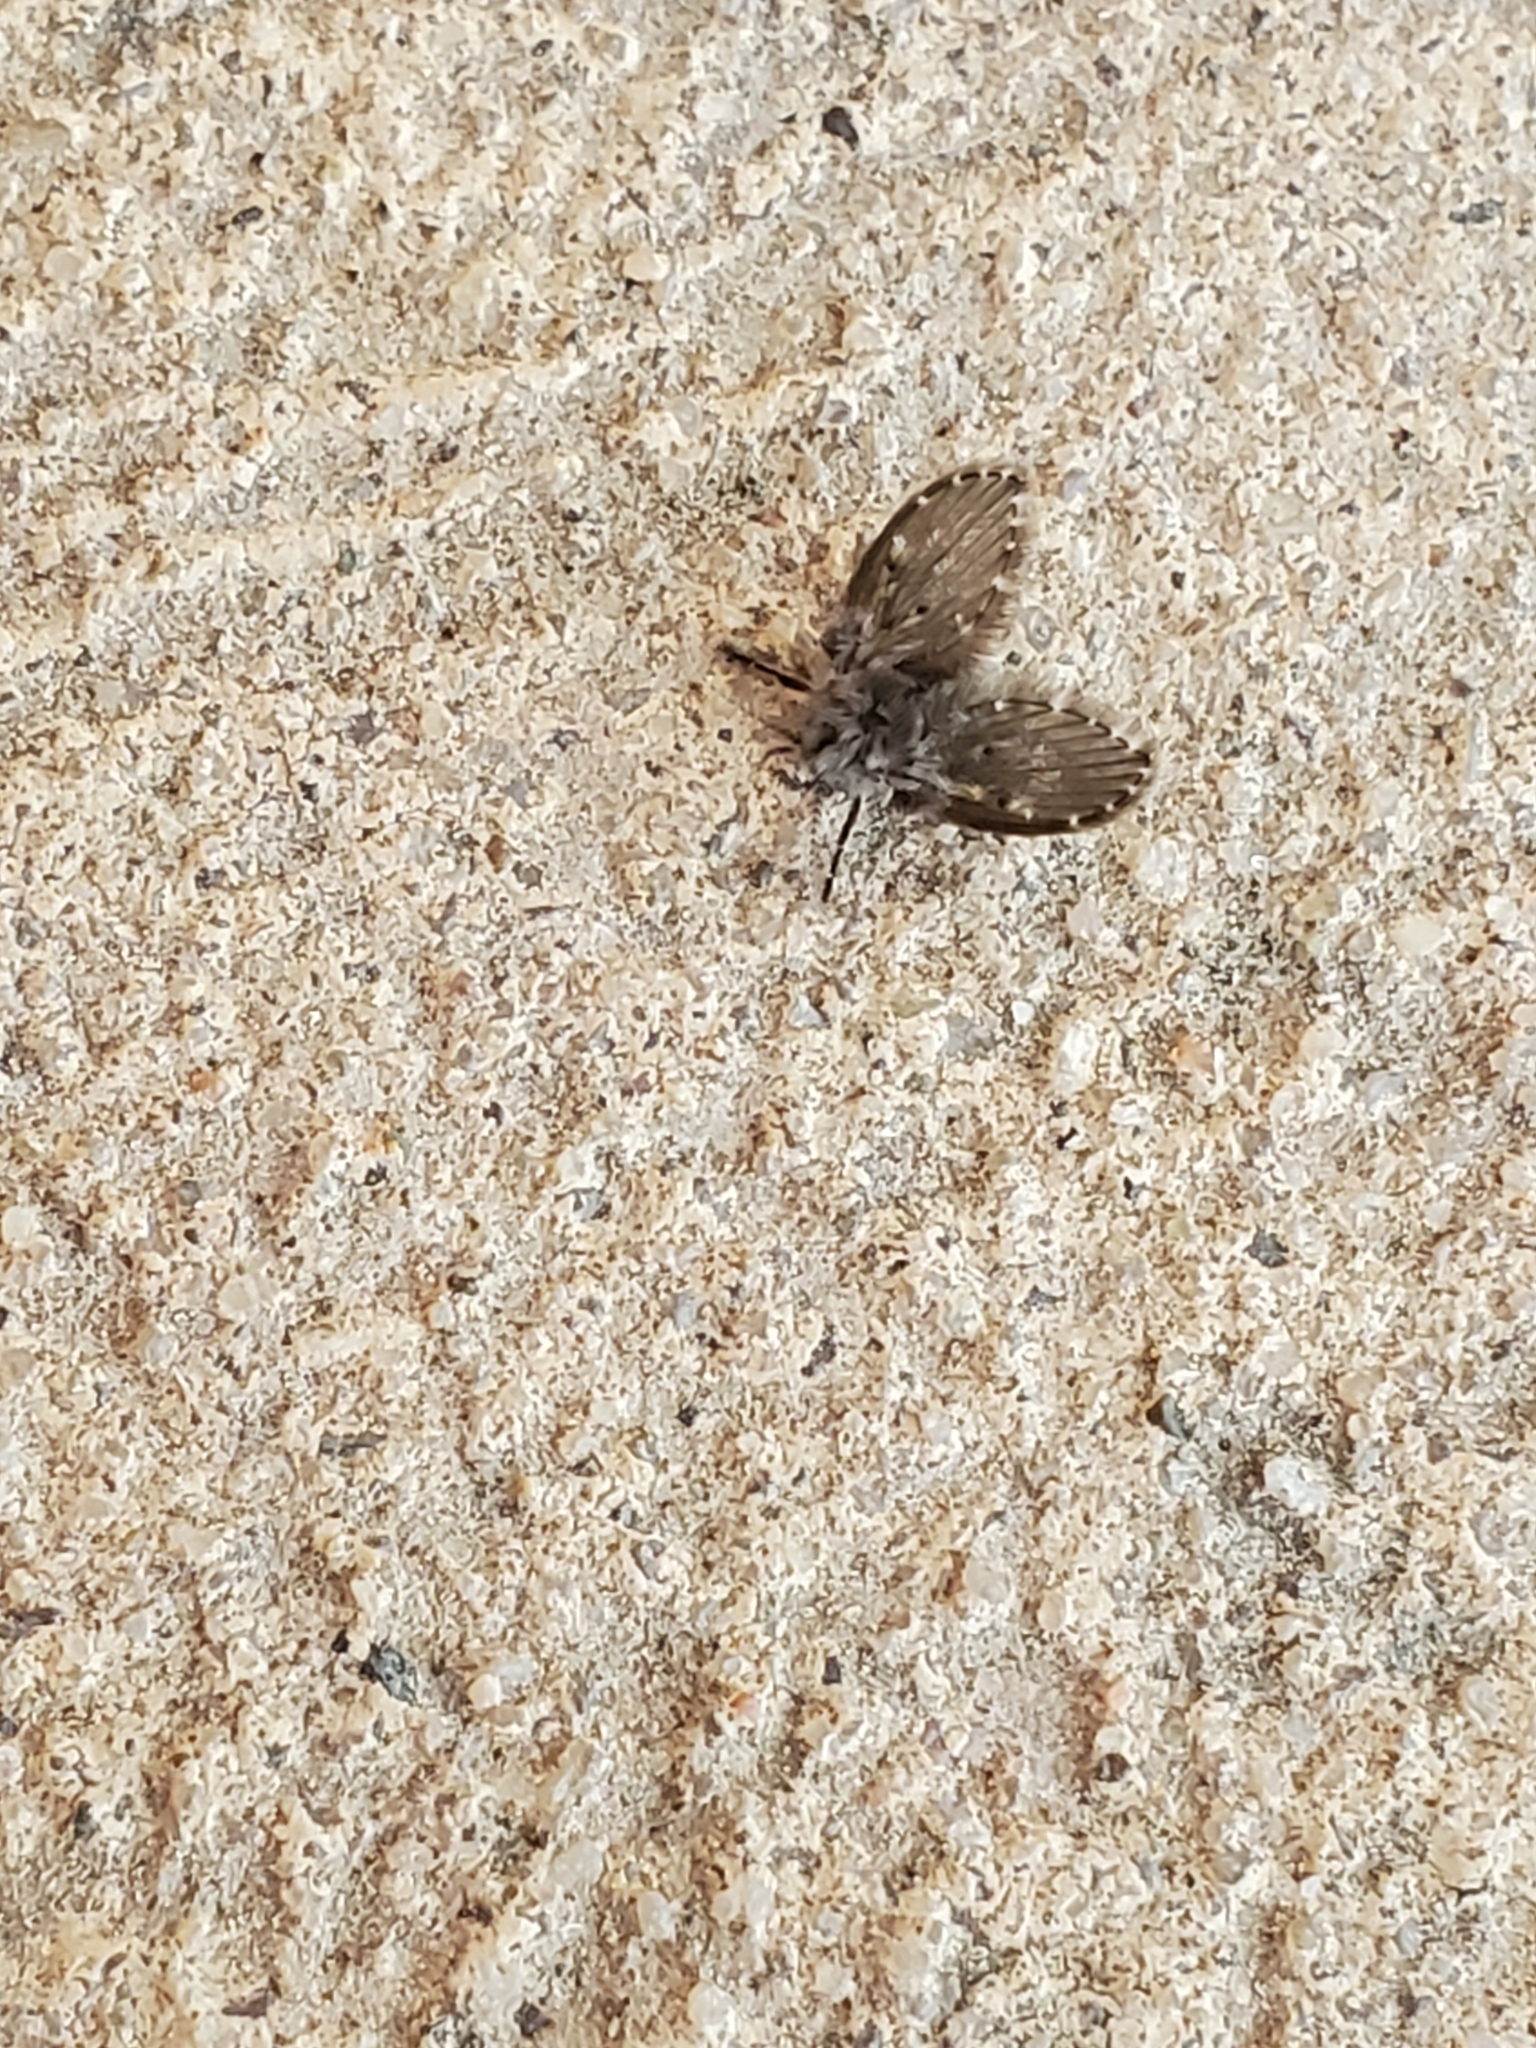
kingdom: Animalia
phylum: Arthropoda
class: Insecta
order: Diptera
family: Psychodidae
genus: Clogmia
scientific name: Clogmia albipunctatus
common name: White-spotted moth fly
